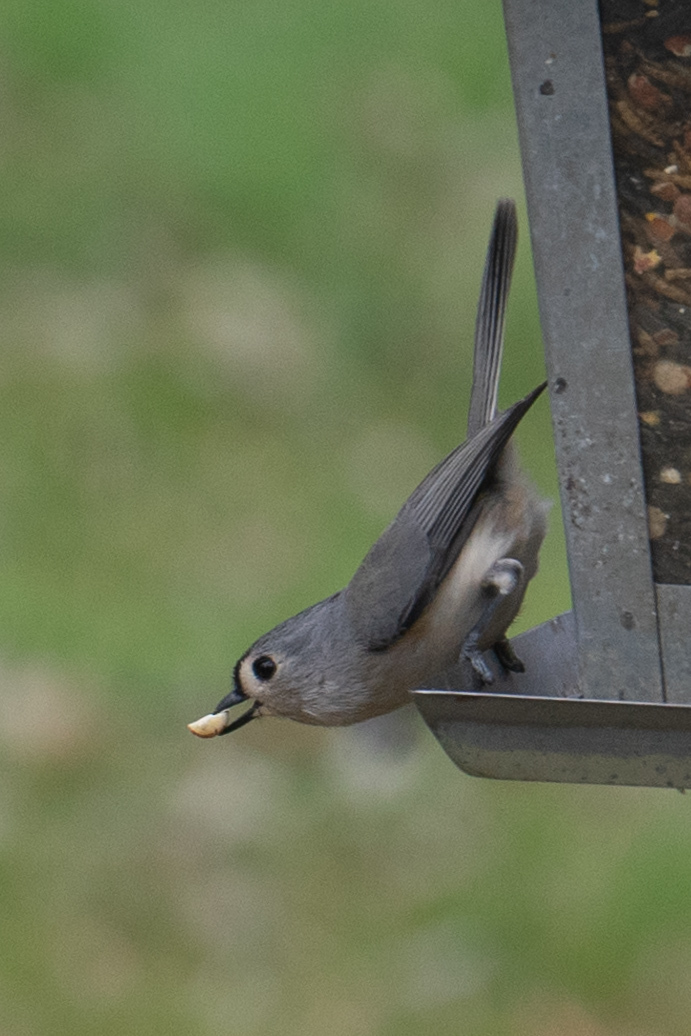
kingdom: Animalia
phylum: Chordata
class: Aves
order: Passeriformes
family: Paridae
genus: Baeolophus
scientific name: Baeolophus bicolor
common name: Tufted titmouse
